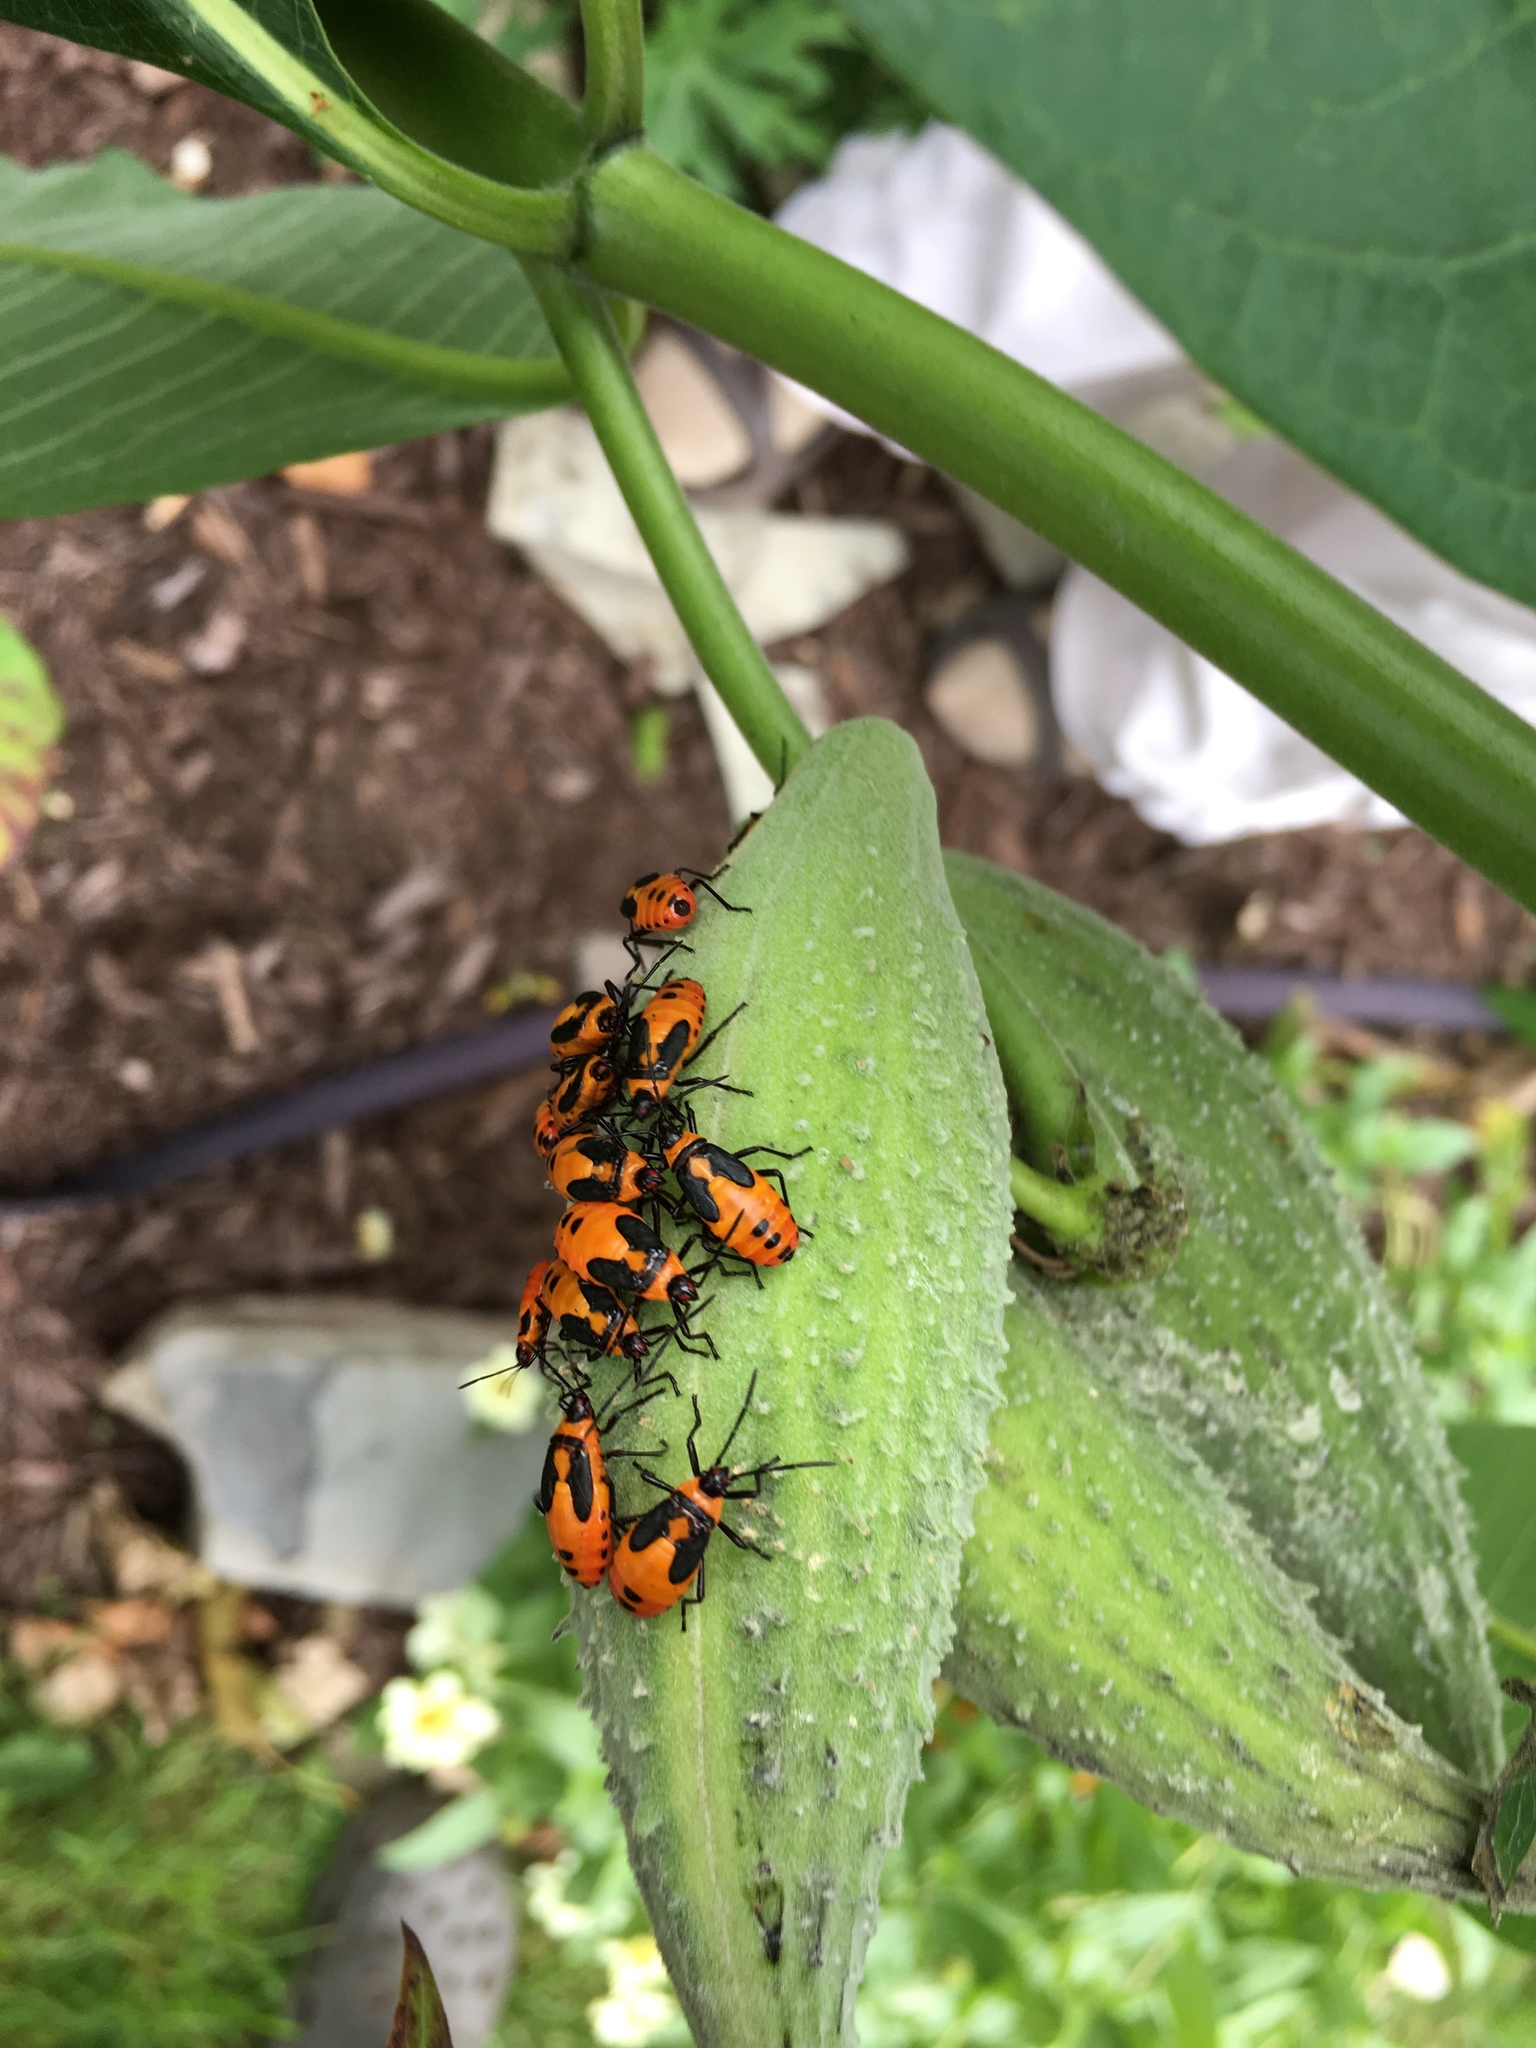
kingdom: Animalia
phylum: Arthropoda
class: Insecta
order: Hemiptera
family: Lygaeidae
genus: Oncopeltus
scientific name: Oncopeltus fasciatus
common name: Large milkweed bug
